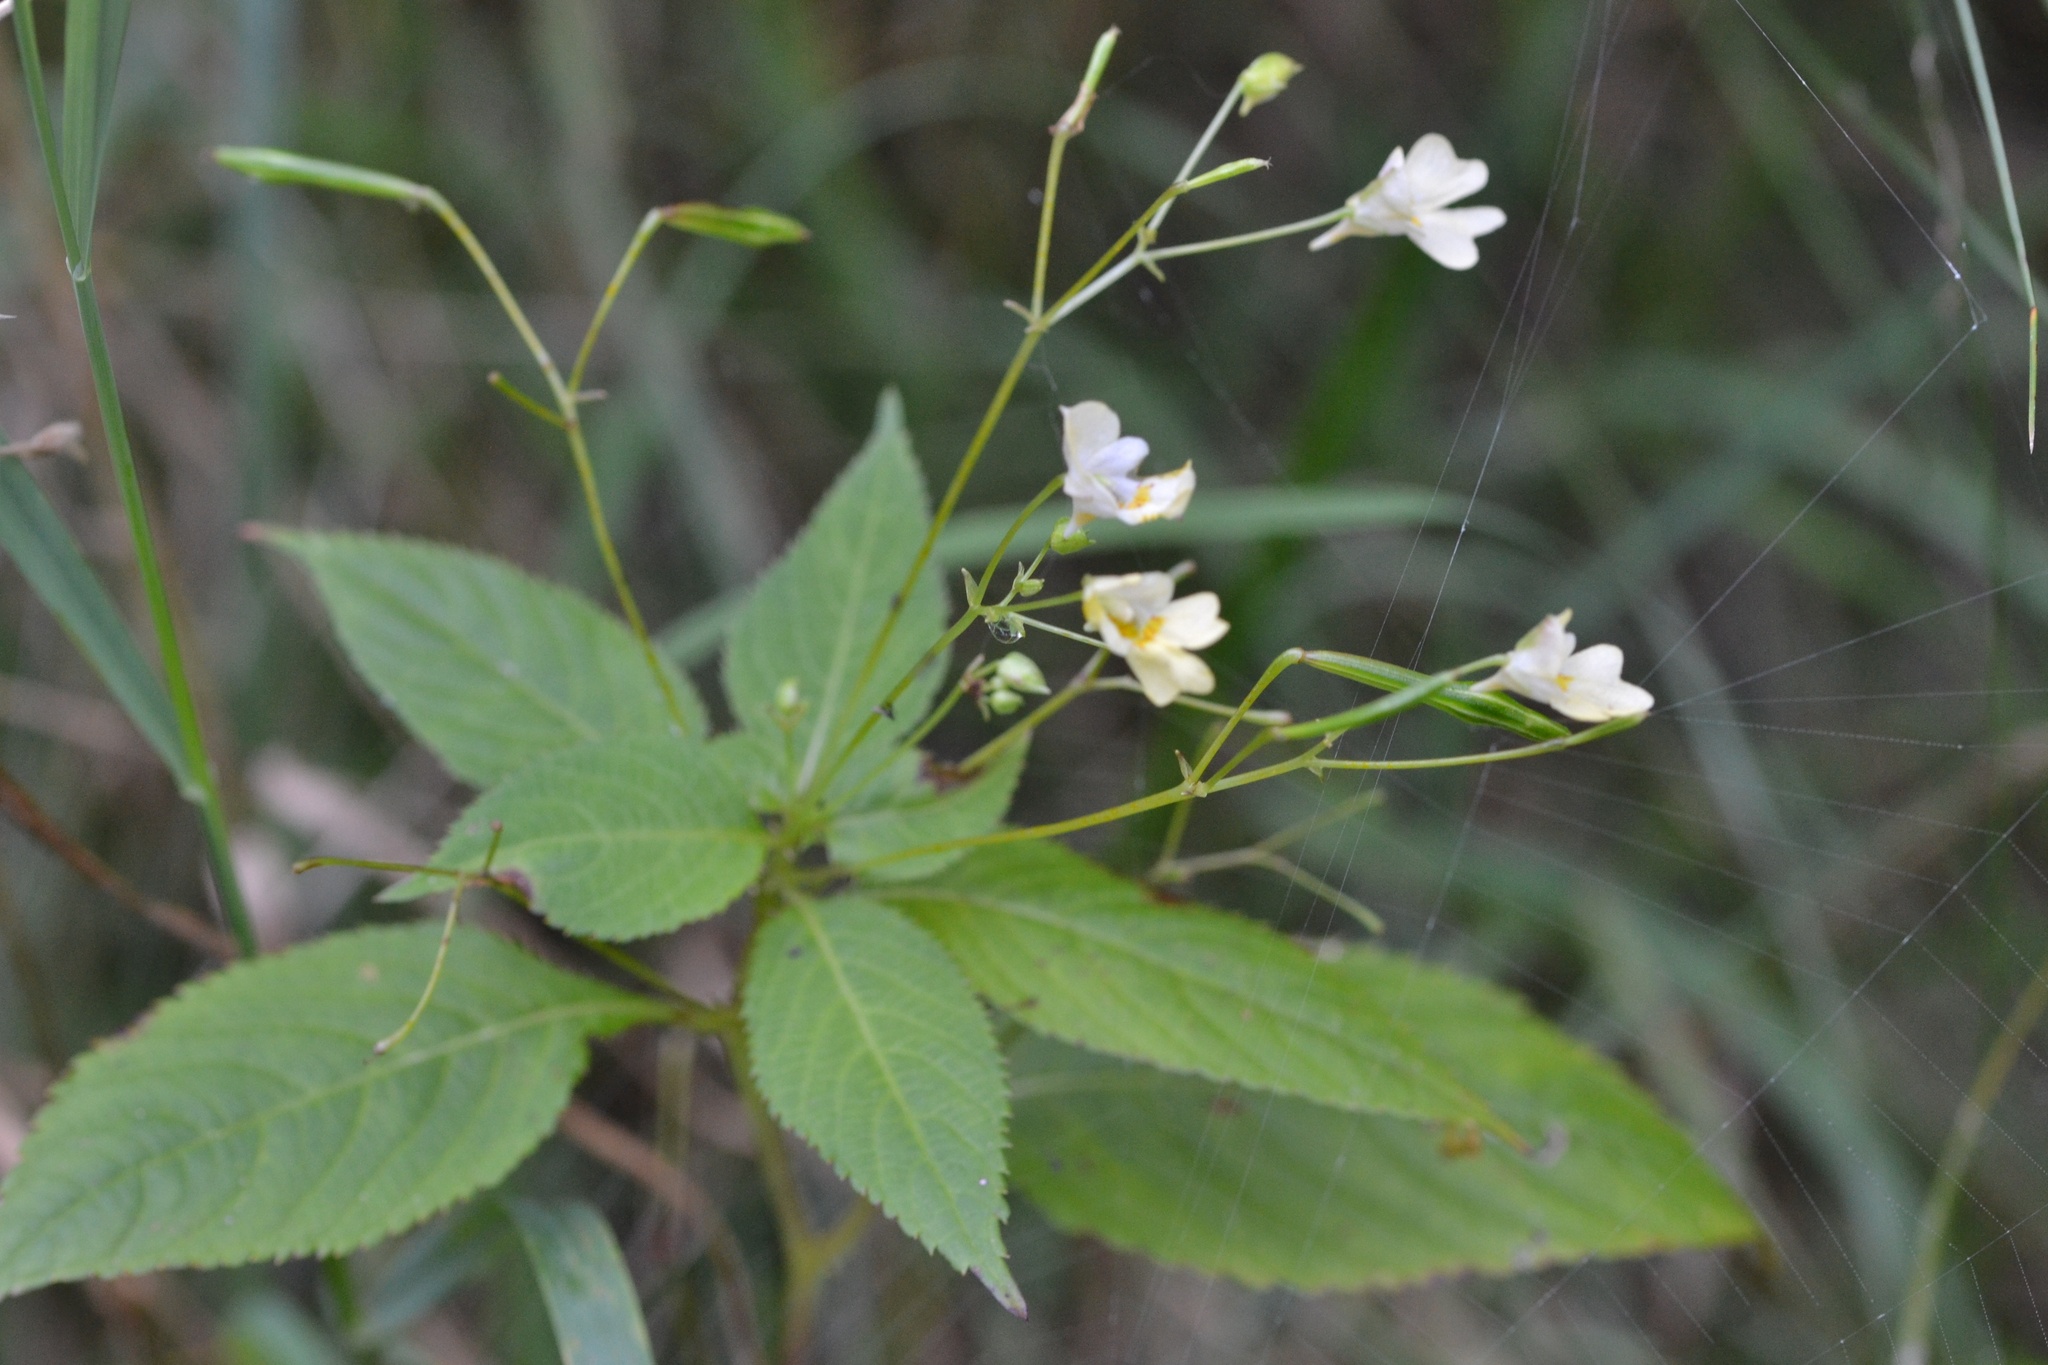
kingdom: Plantae
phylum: Tracheophyta
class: Magnoliopsida
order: Ericales
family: Balsaminaceae
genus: Impatiens
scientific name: Impatiens parviflora
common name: Small balsam
